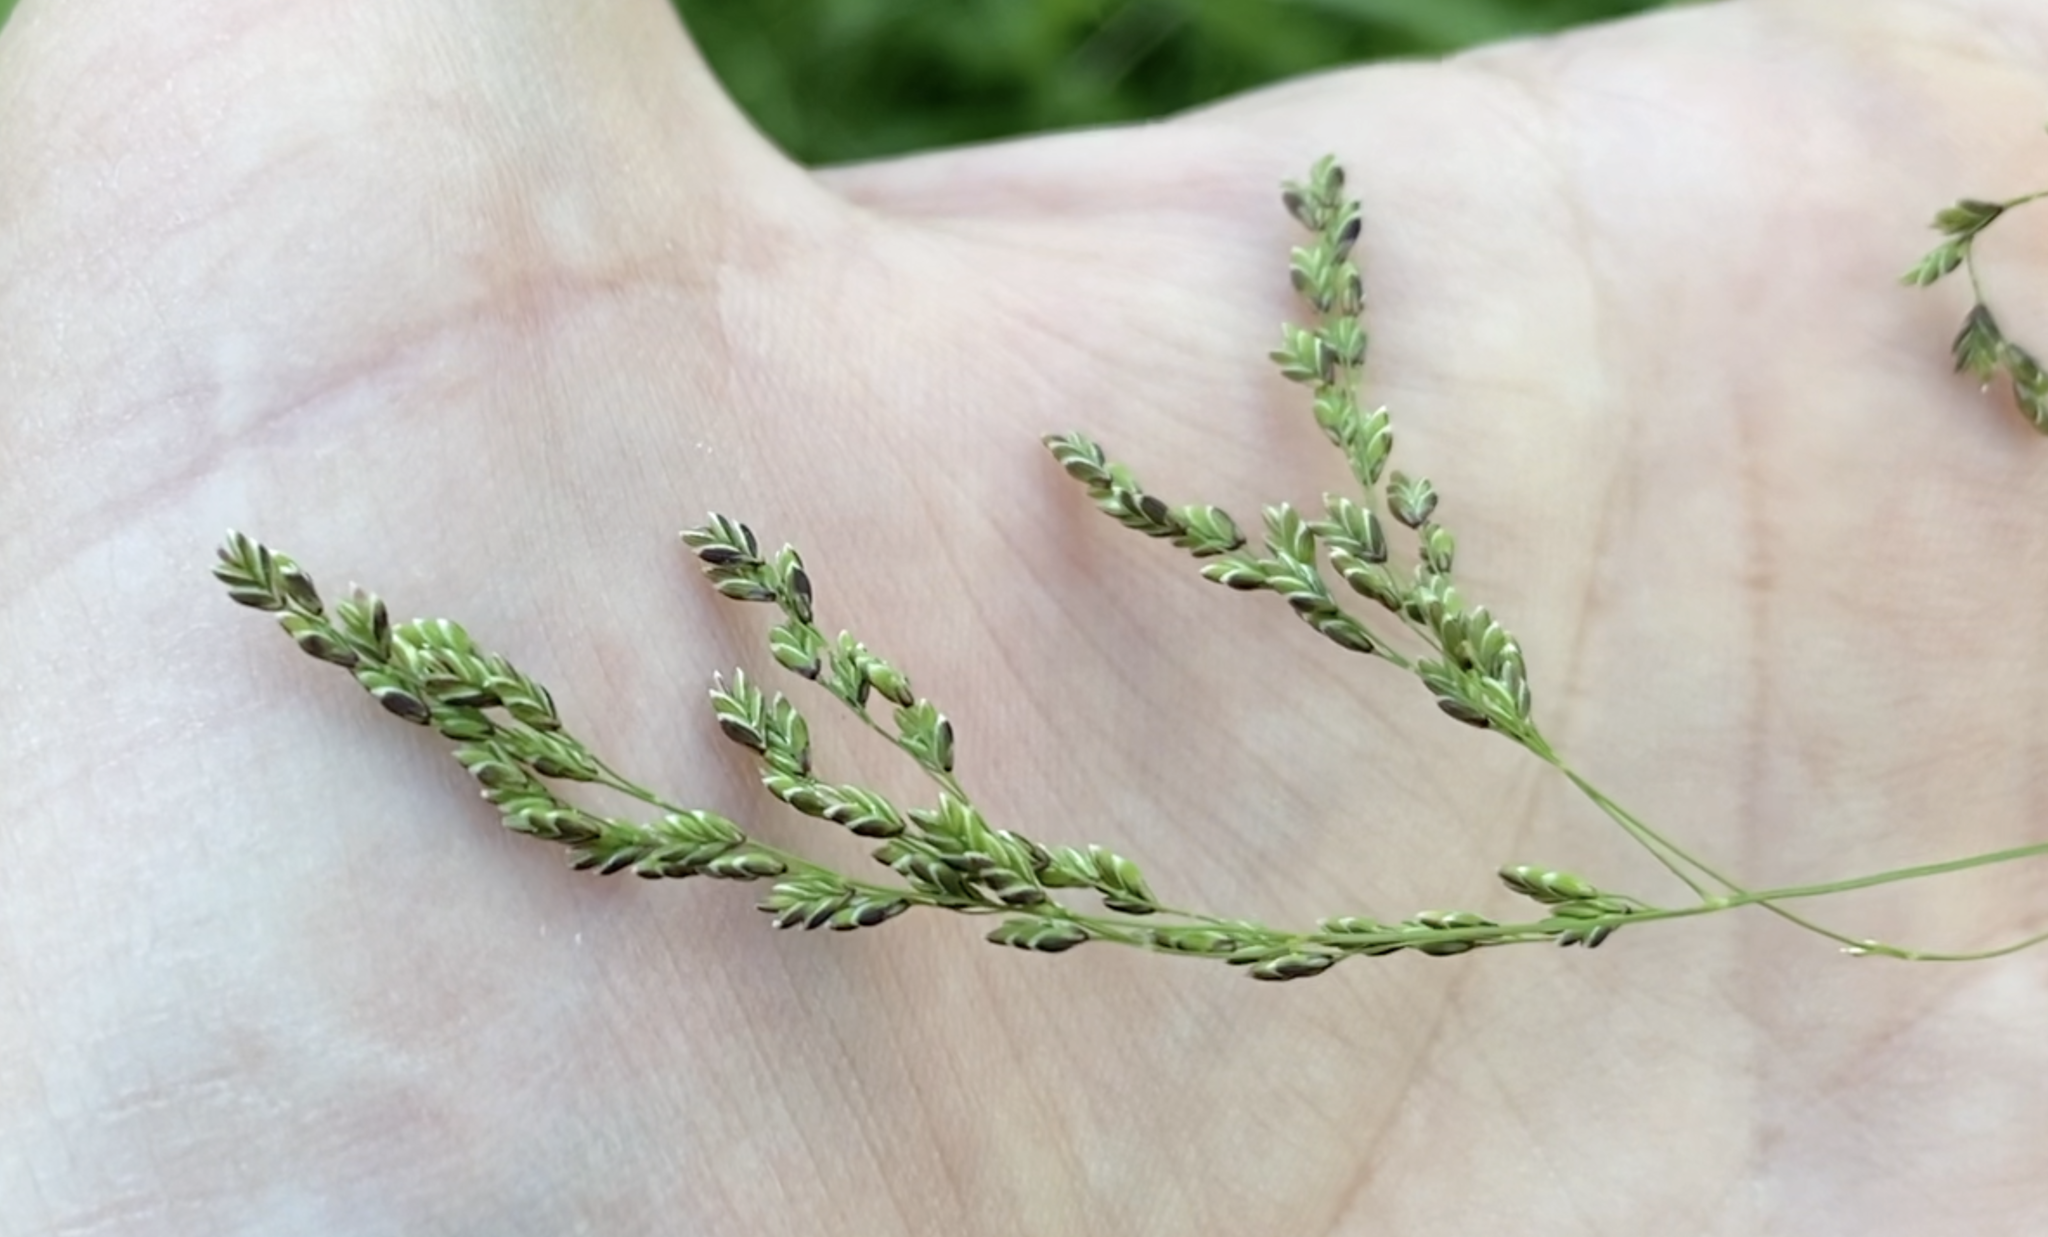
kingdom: Plantae
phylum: Tracheophyta
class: Liliopsida
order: Poales
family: Poaceae
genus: Glyceria
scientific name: Glyceria striata
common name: Fowl manna grass
